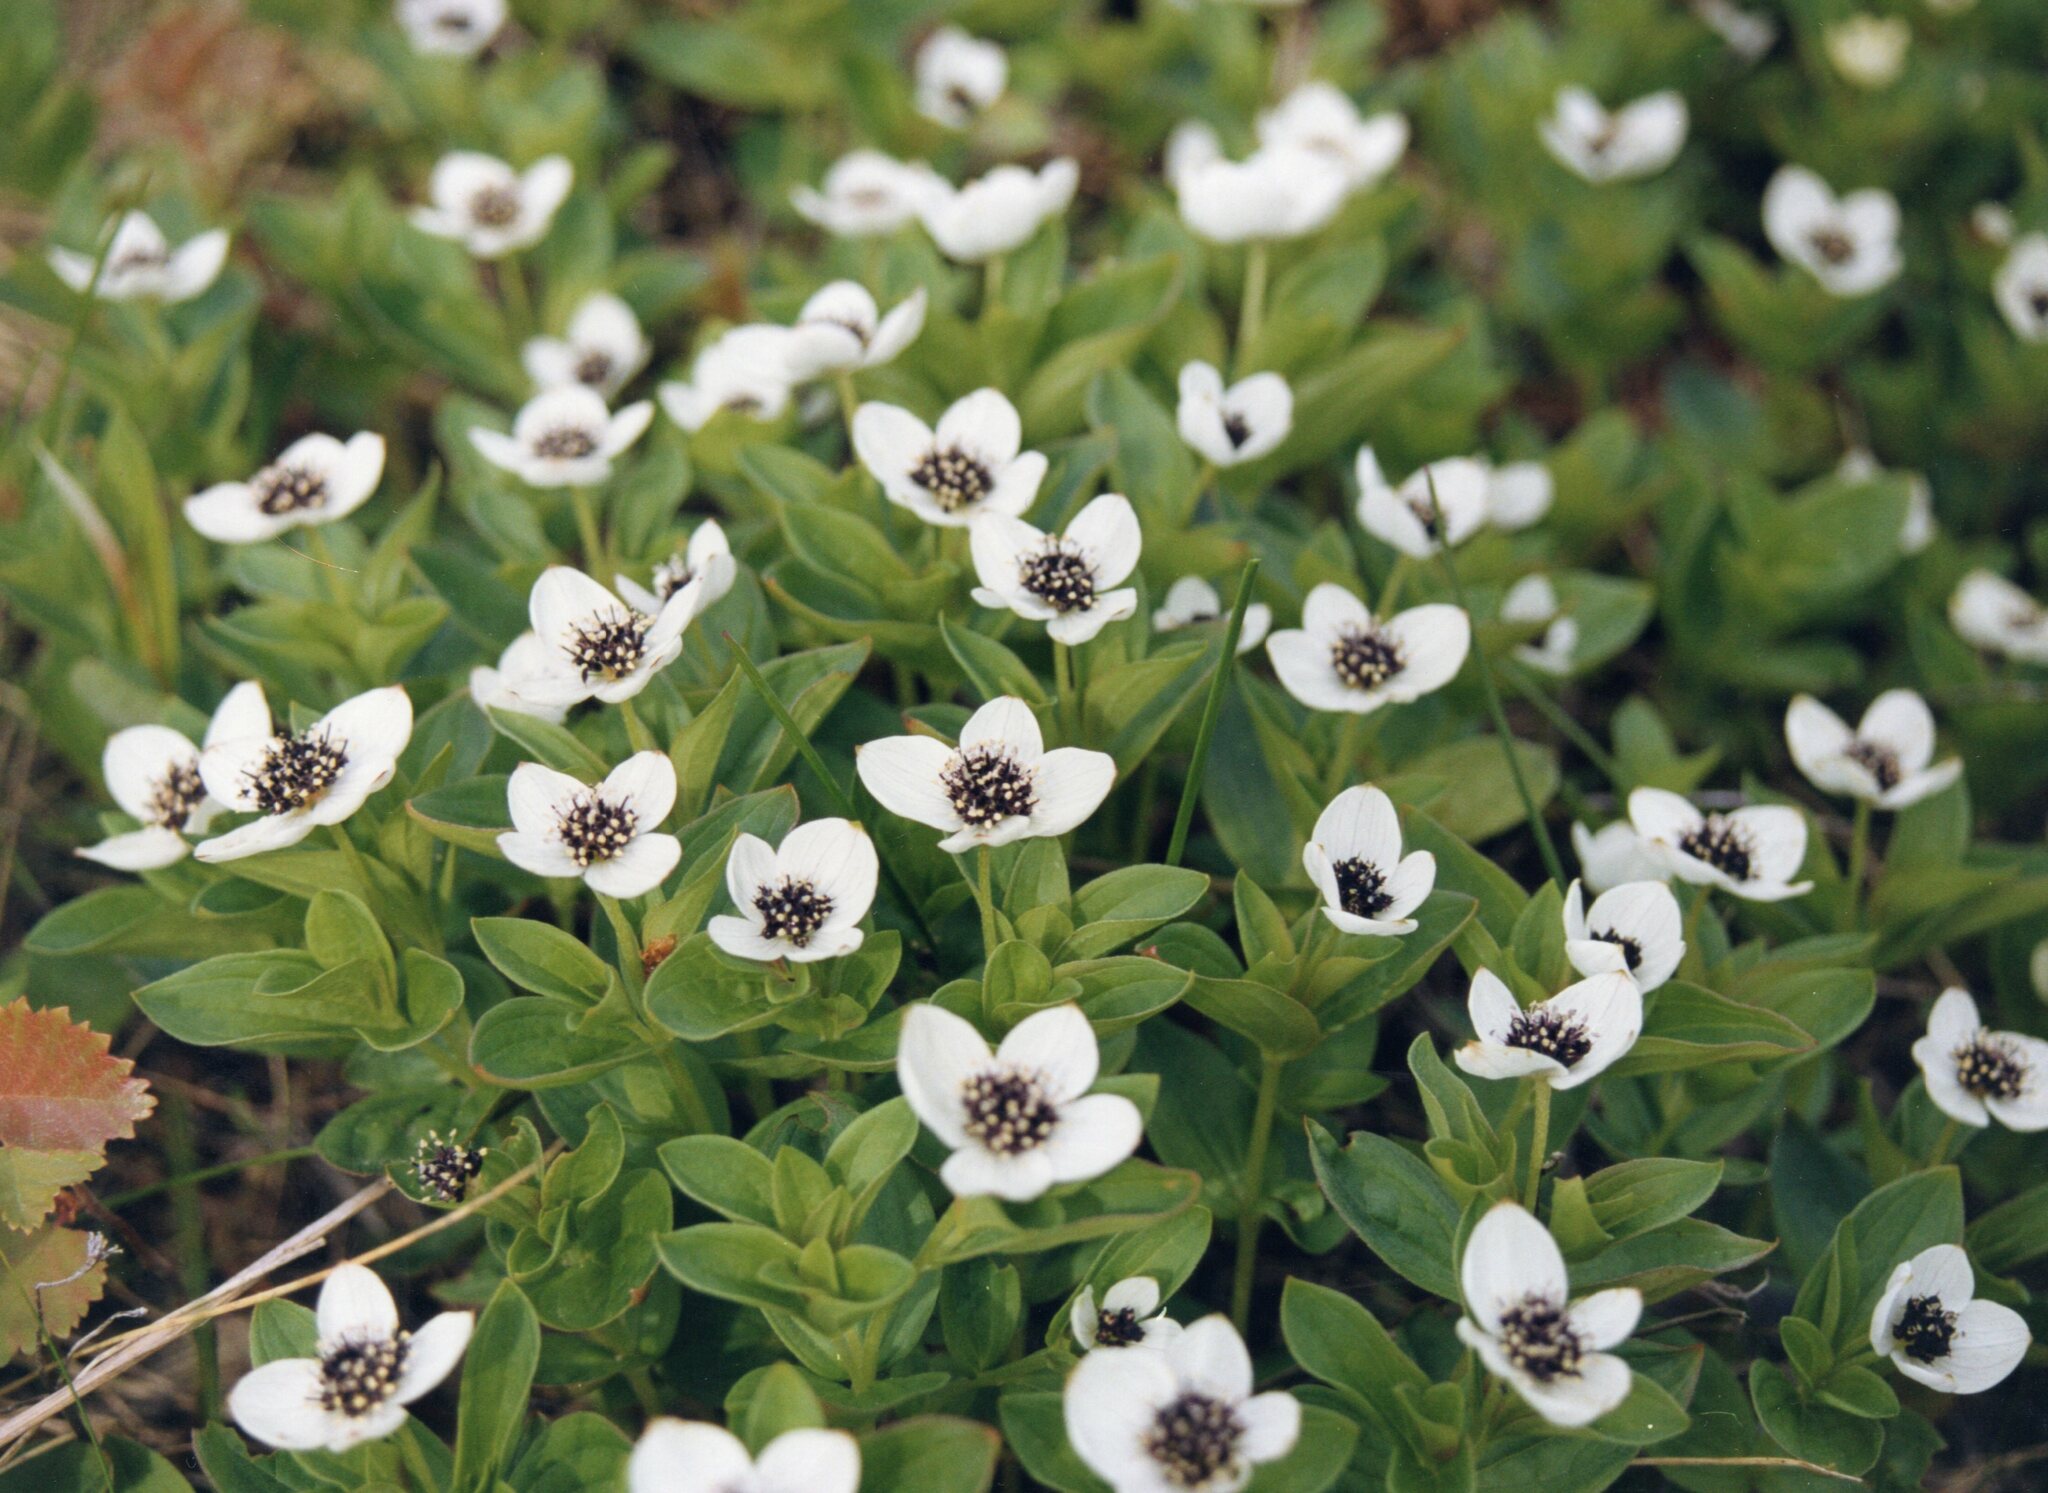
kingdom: Plantae
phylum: Tracheophyta
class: Magnoliopsida
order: Cornales
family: Cornaceae
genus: Cornus
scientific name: Cornus suecica
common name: Dwarf cornel
